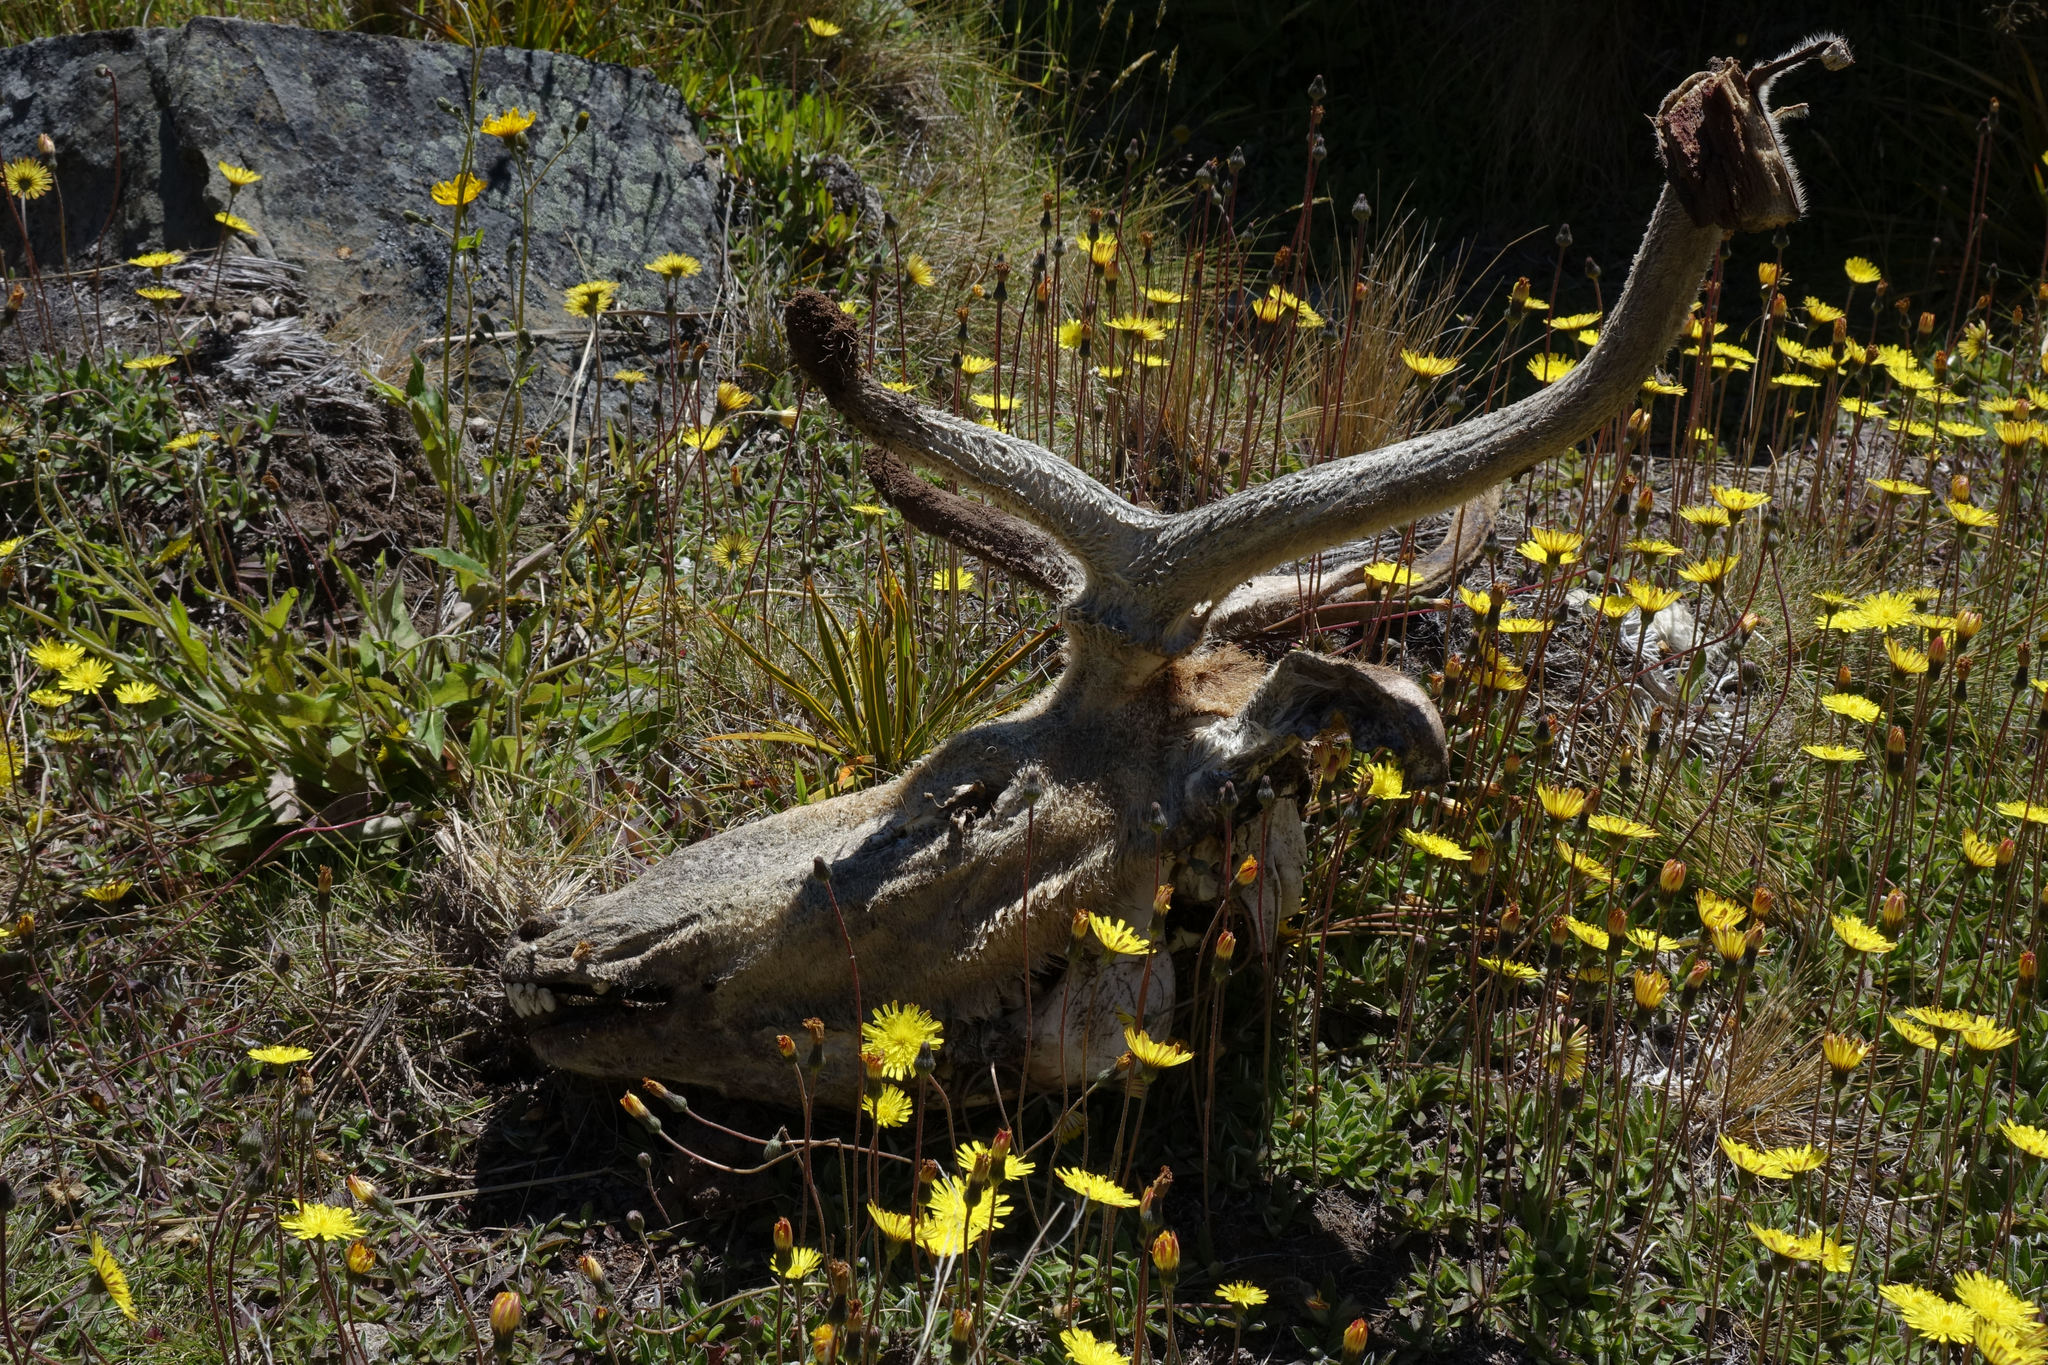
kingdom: Animalia
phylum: Chordata
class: Mammalia
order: Artiodactyla
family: Cervidae
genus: Cervus
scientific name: Cervus elaphus
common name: Red deer
